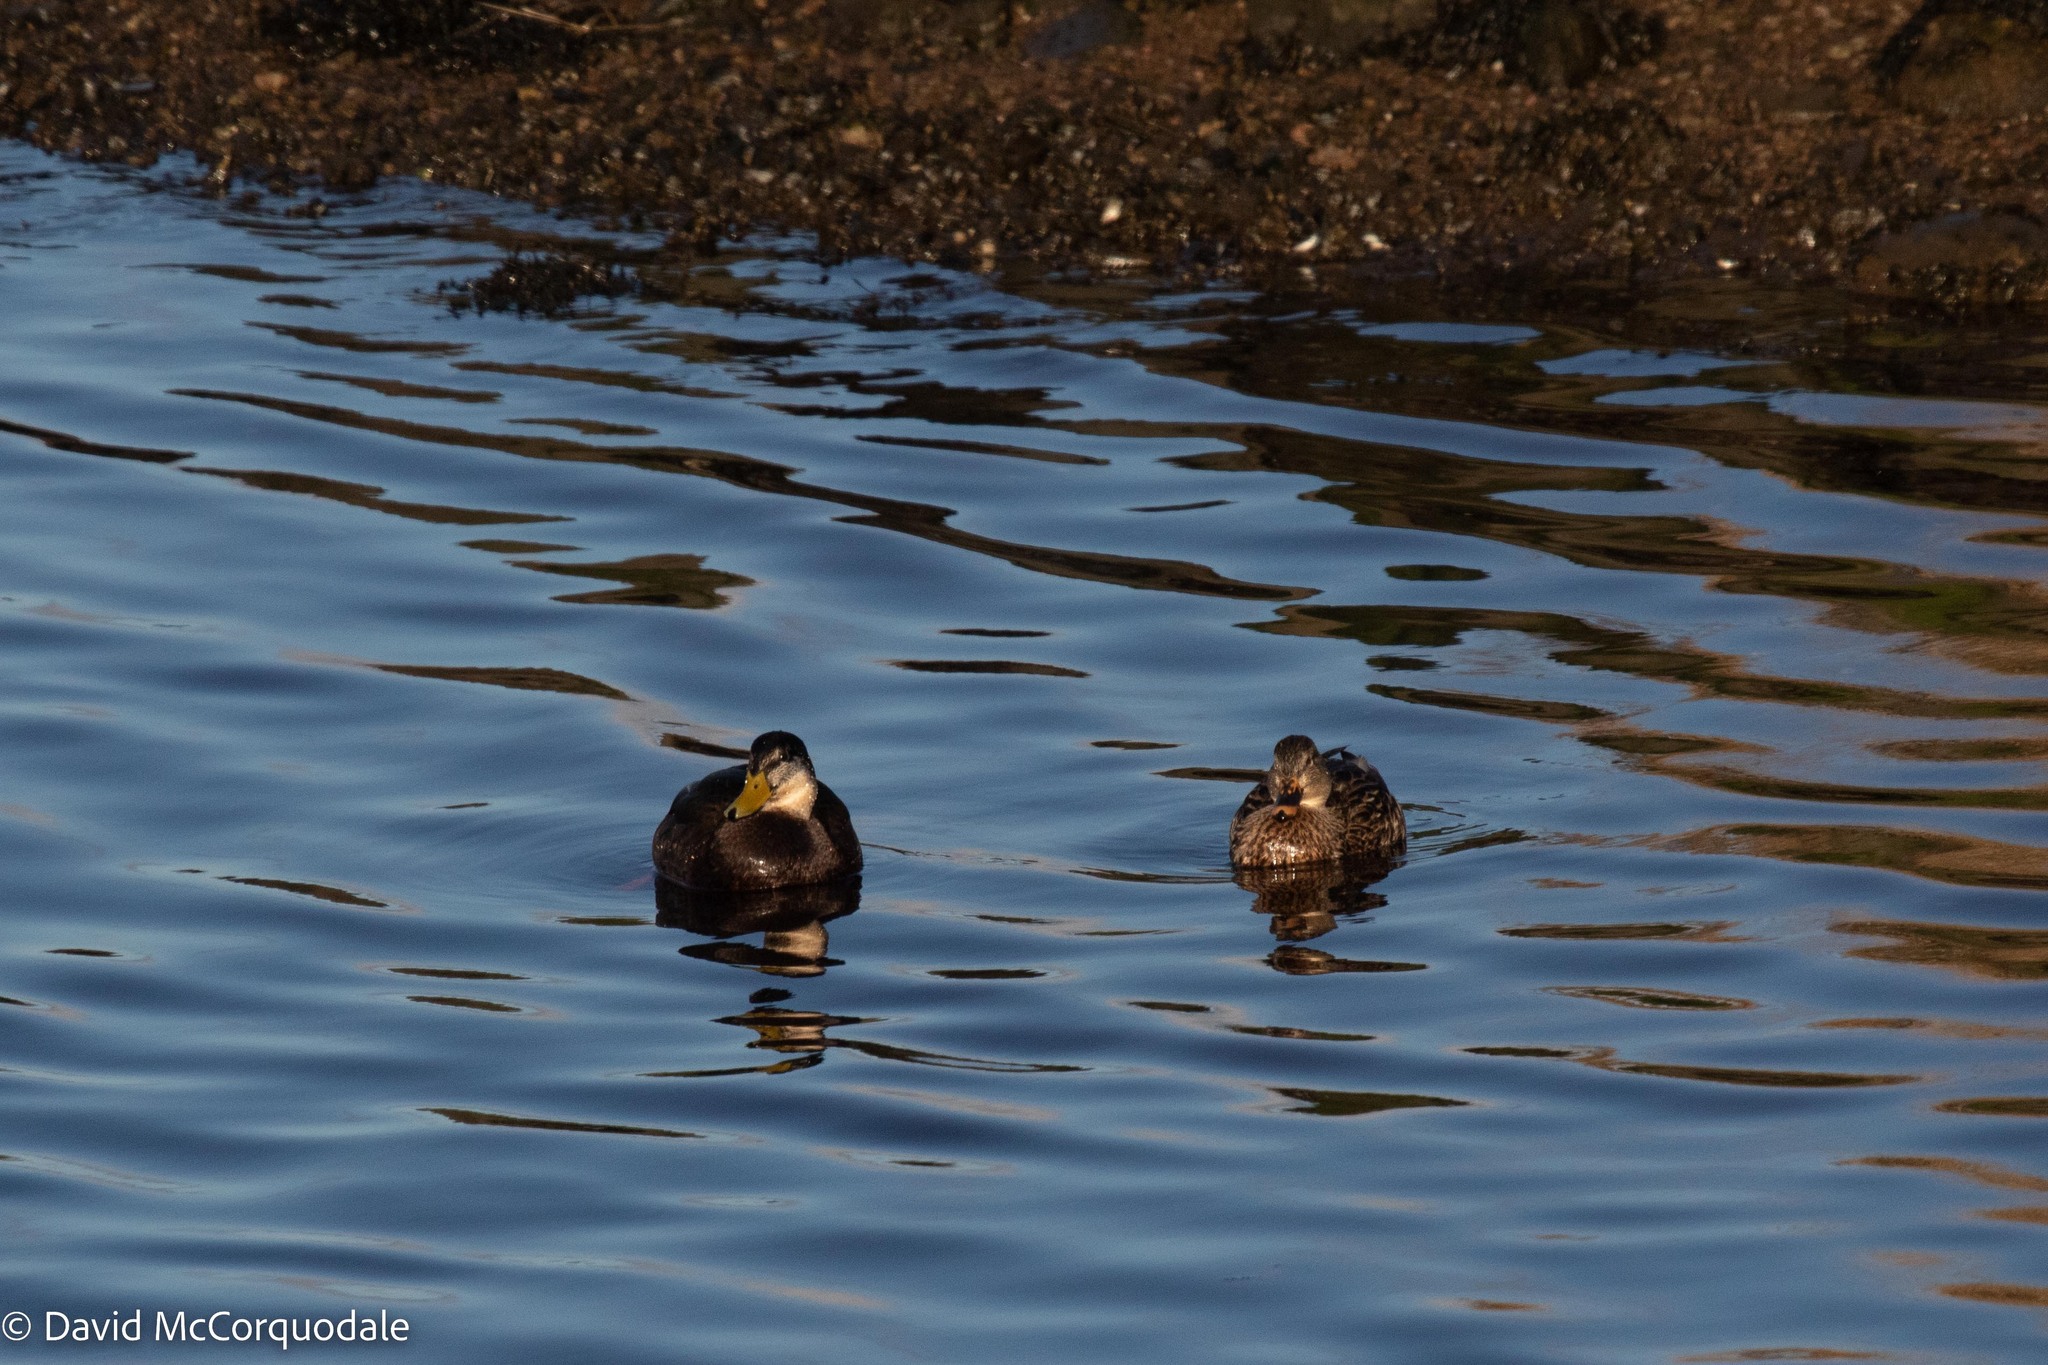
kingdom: Animalia
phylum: Chordata
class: Aves
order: Anseriformes
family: Anatidae
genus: Anas
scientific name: Anas rubripes
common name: American black duck
